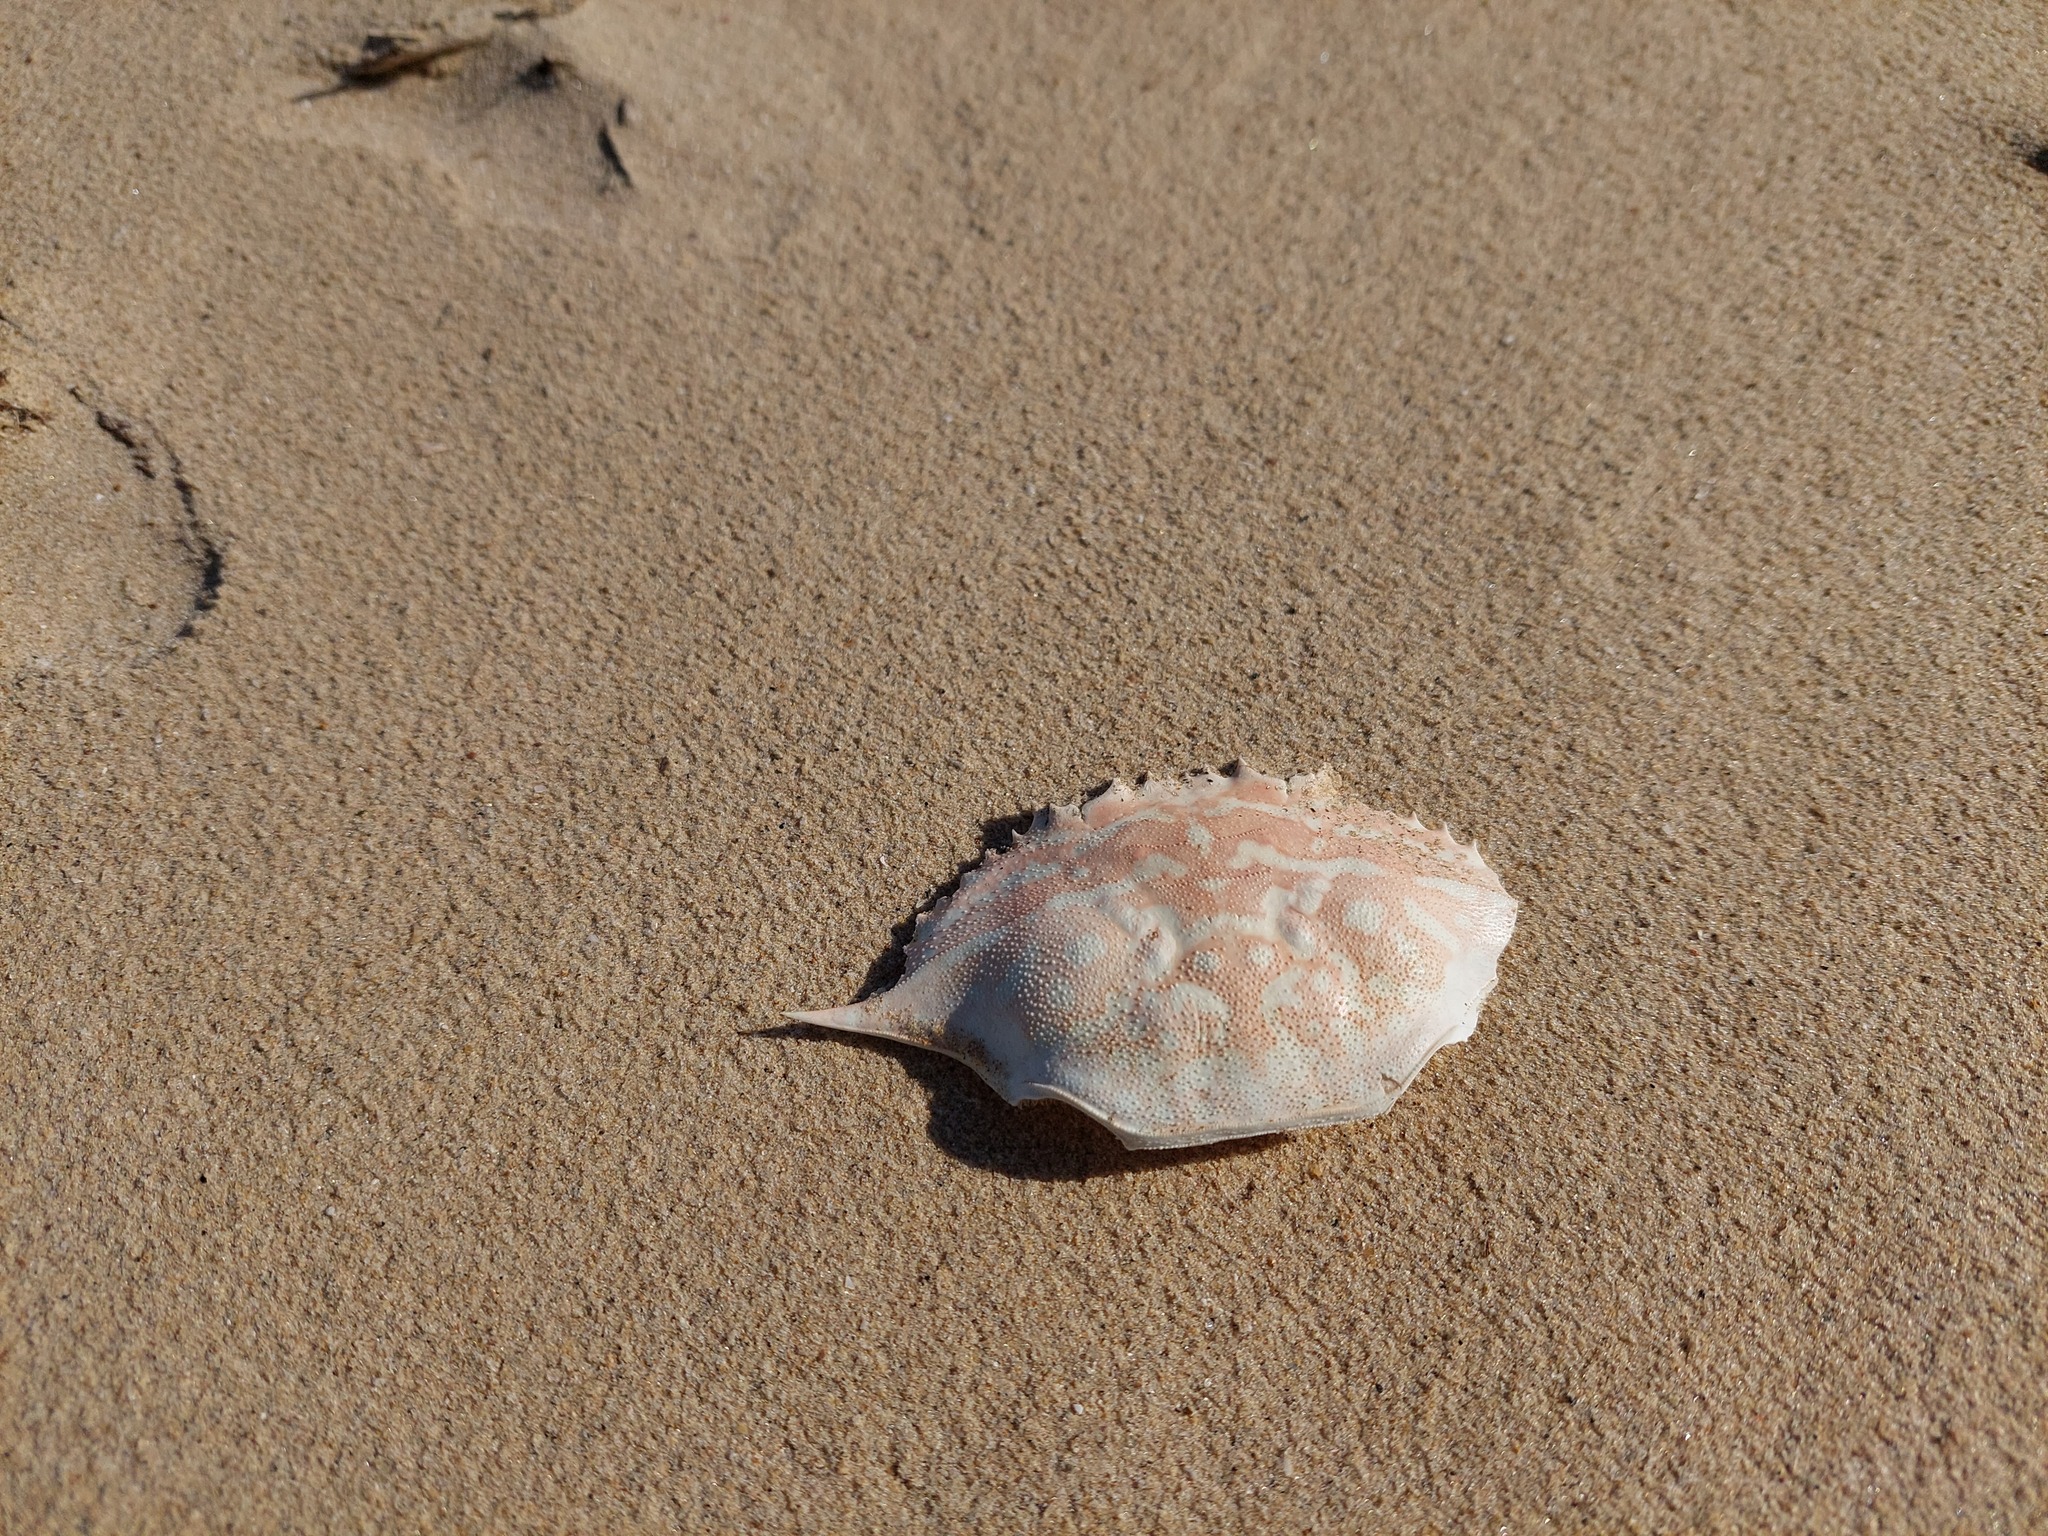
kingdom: Animalia
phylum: Arthropoda
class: Malacostraca
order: Decapoda
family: Portunidae
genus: Portunus
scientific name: Portunus pelagicus
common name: Blue swimming crab
